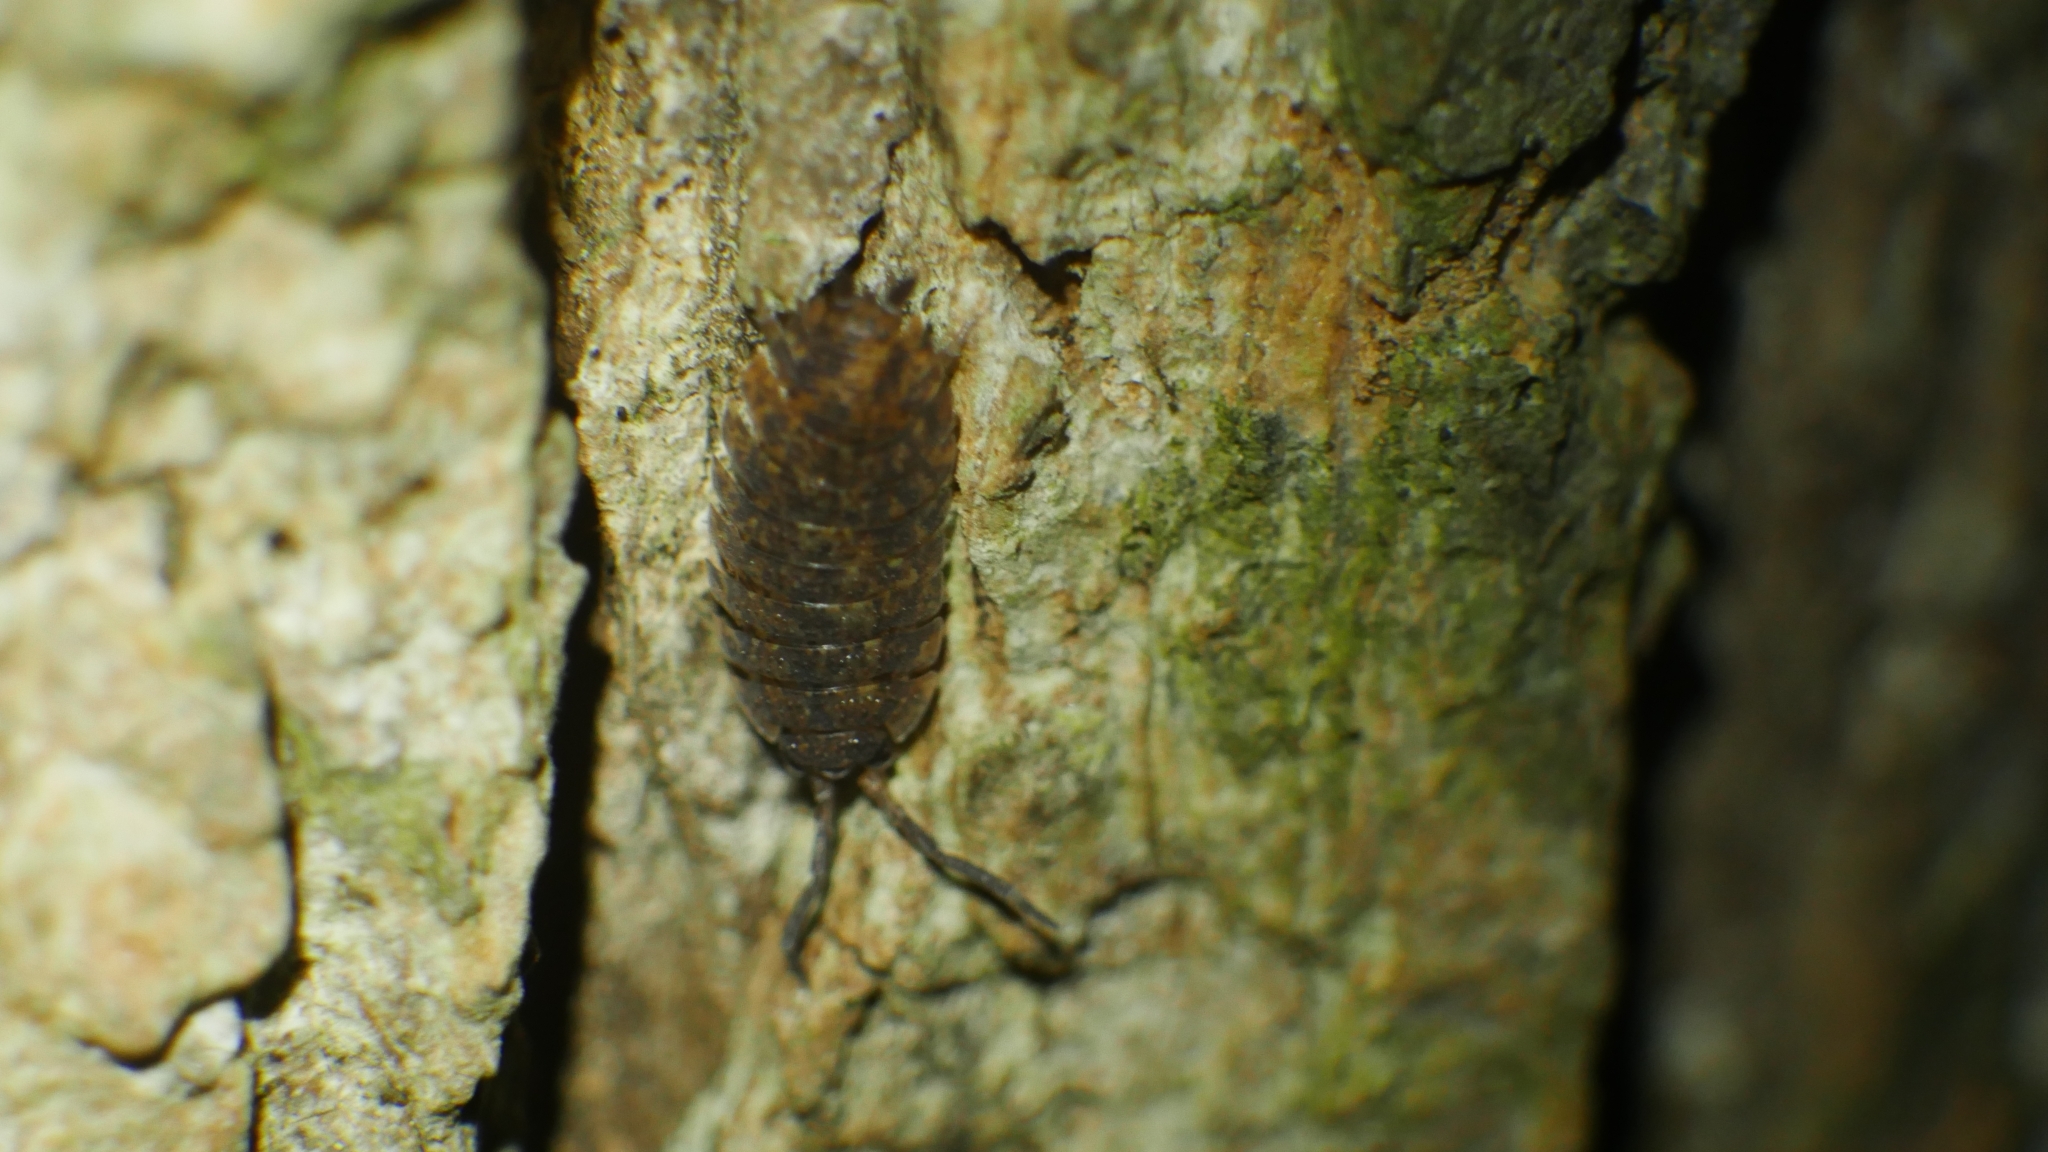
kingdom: Animalia
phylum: Arthropoda
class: Malacostraca
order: Isopoda
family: Porcellionidae
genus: Porcellio
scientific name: Porcellio scaber
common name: Common rough woodlouse
